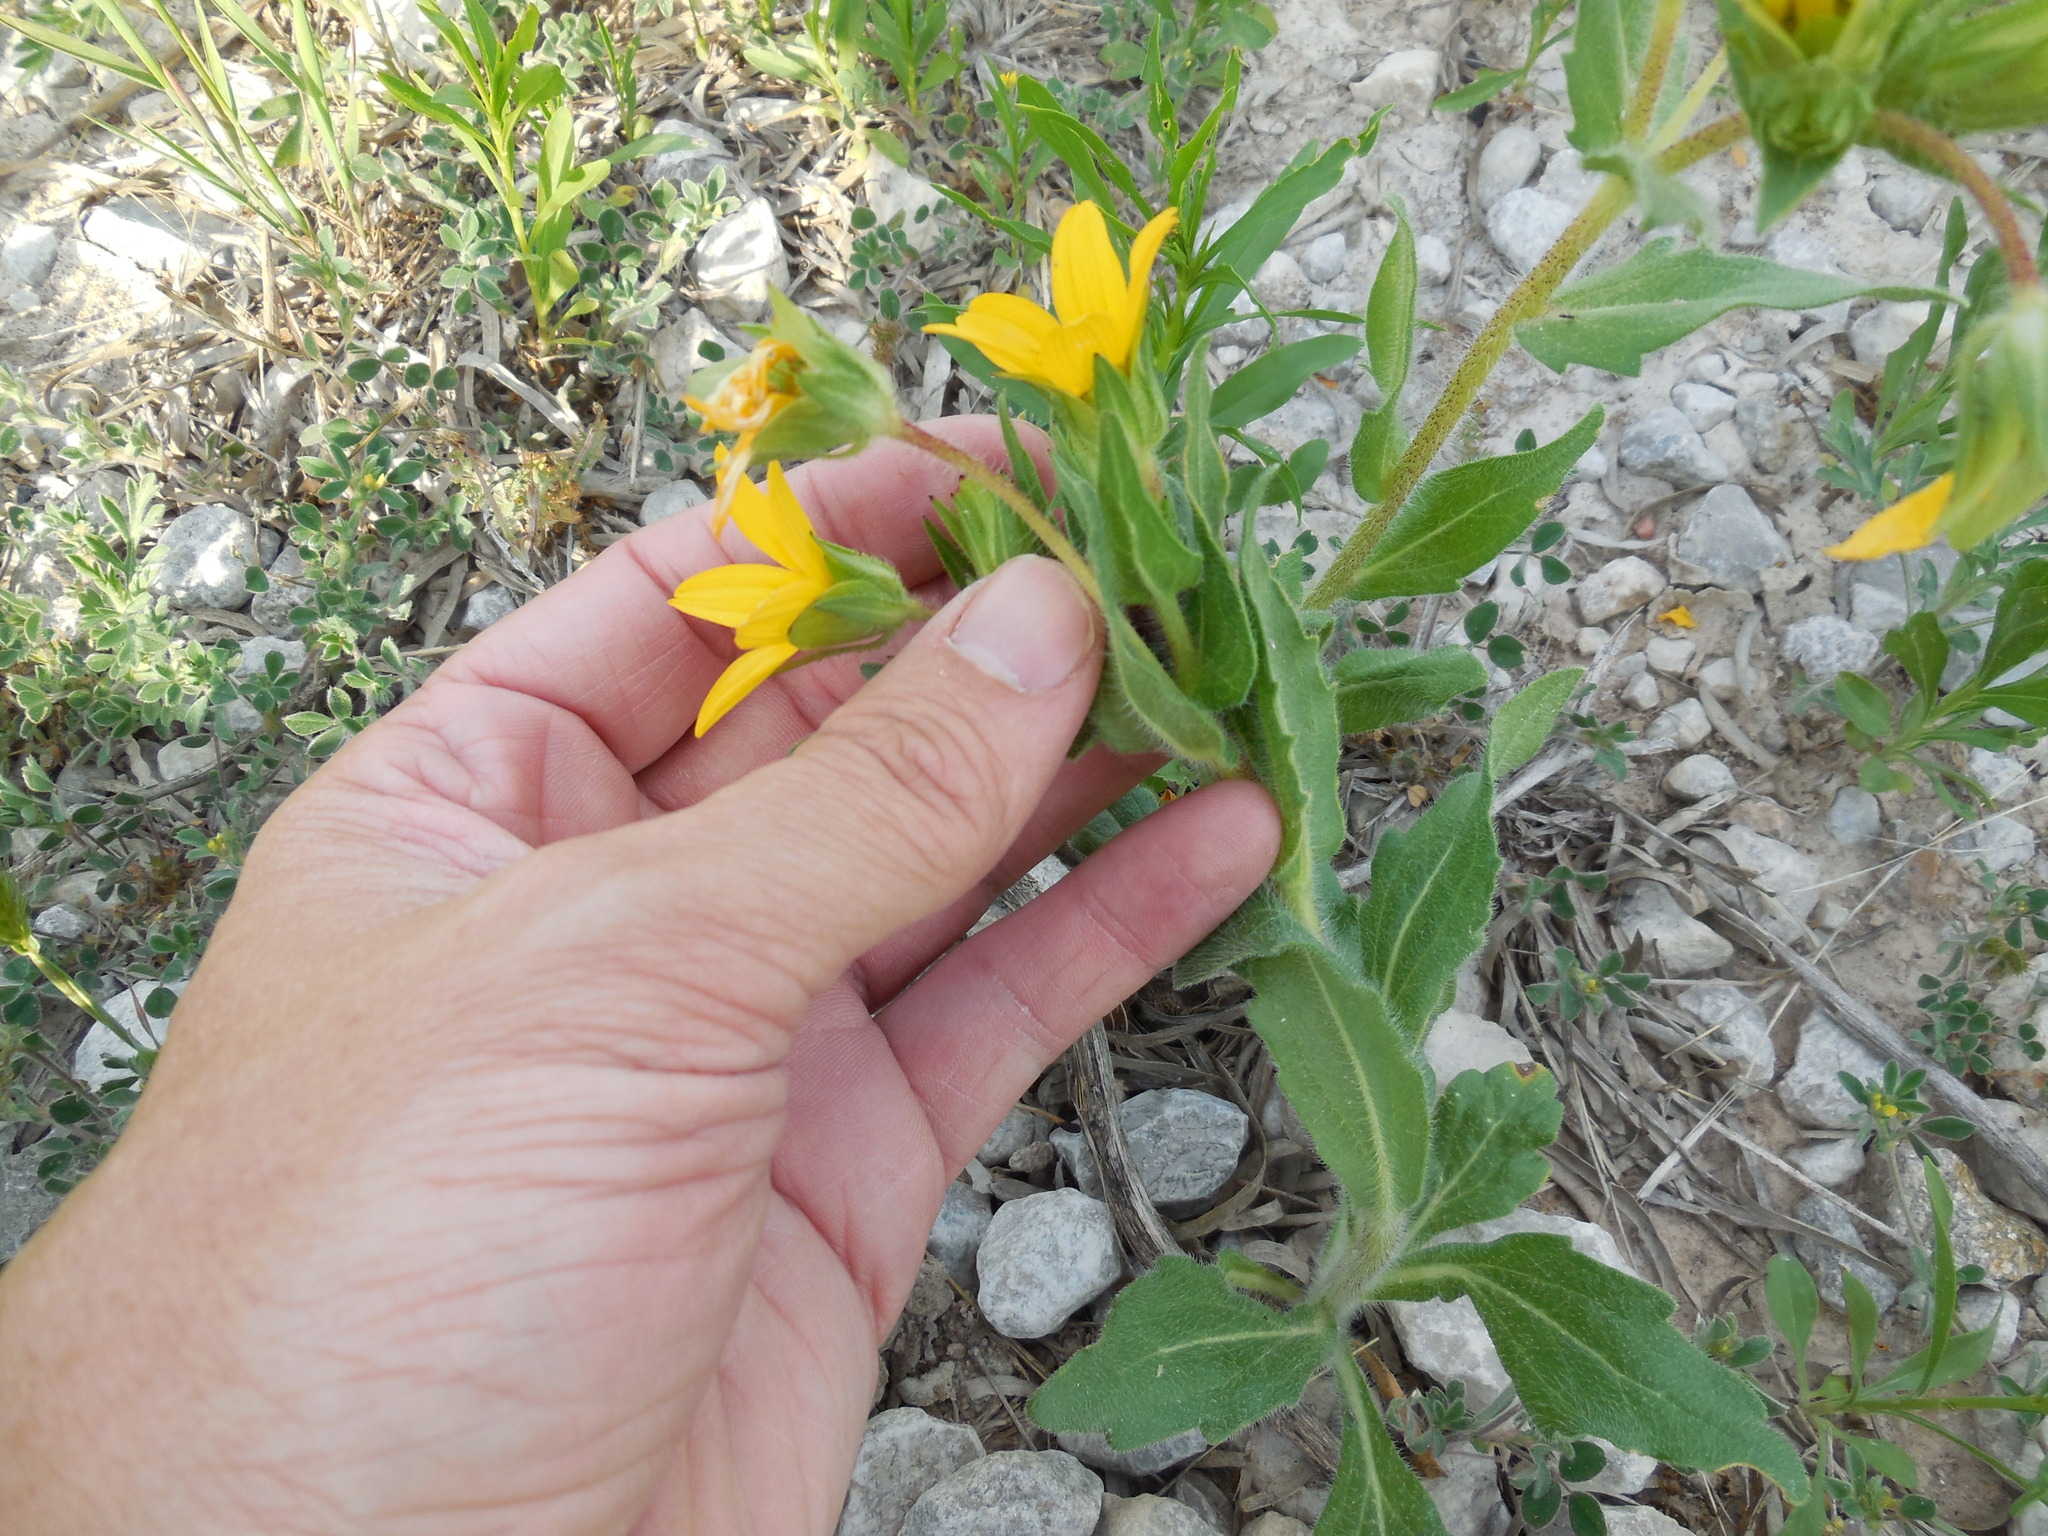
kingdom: Plantae
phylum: Tracheophyta
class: Magnoliopsida
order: Asterales
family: Asteraceae
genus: Lindheimera
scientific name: Lindheimera texana
